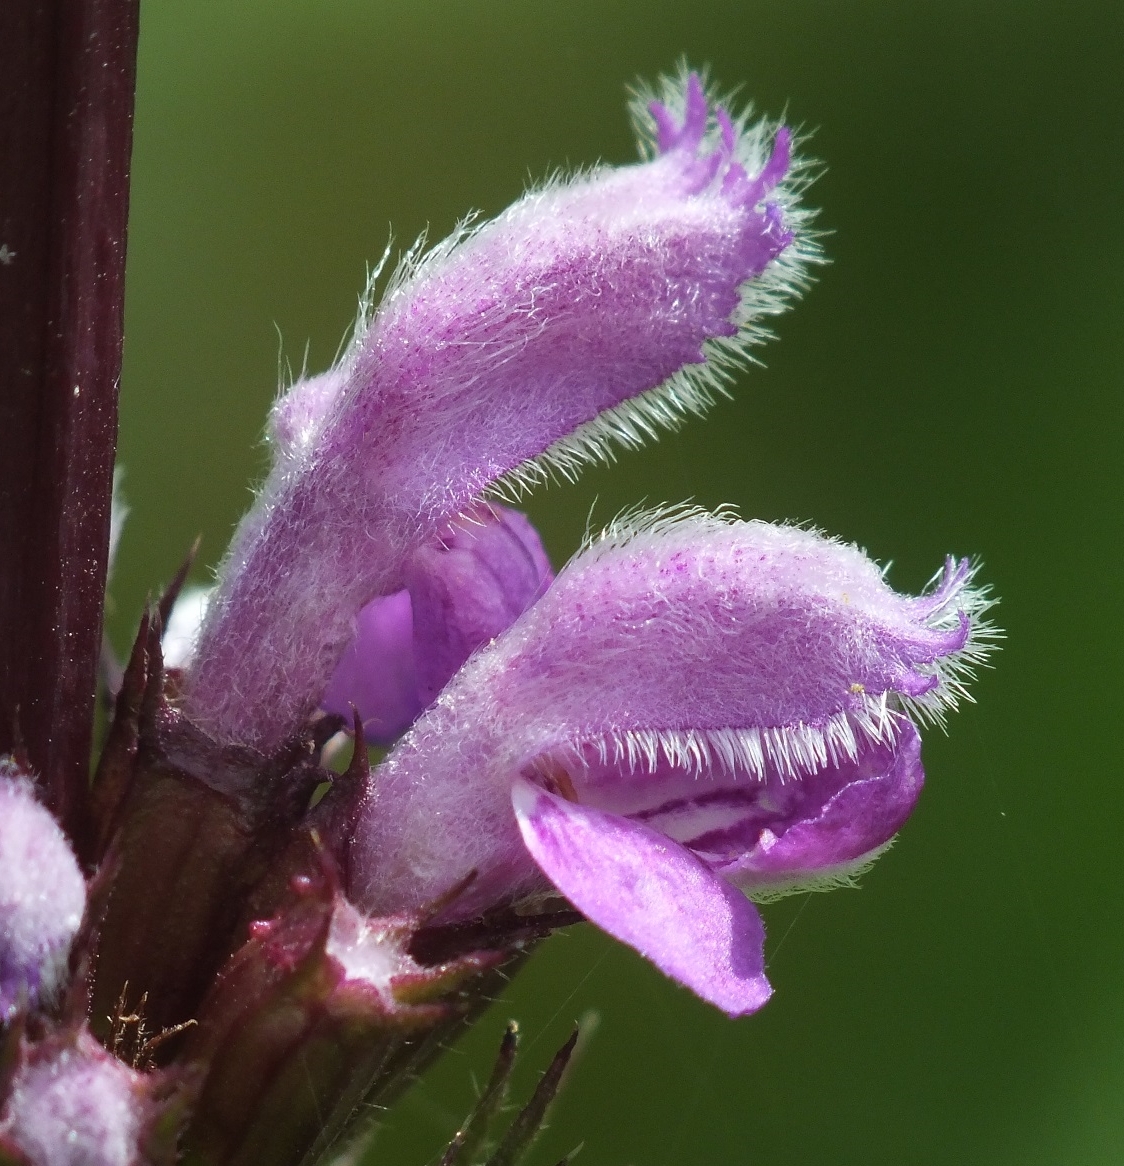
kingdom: Plantae
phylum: Tracheophyta
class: Magnoliopsida
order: Lamiales
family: Lamiaceae
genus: Phlomoides
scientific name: Phlomoides tuberosa
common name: Tuberous jerusalem sage
